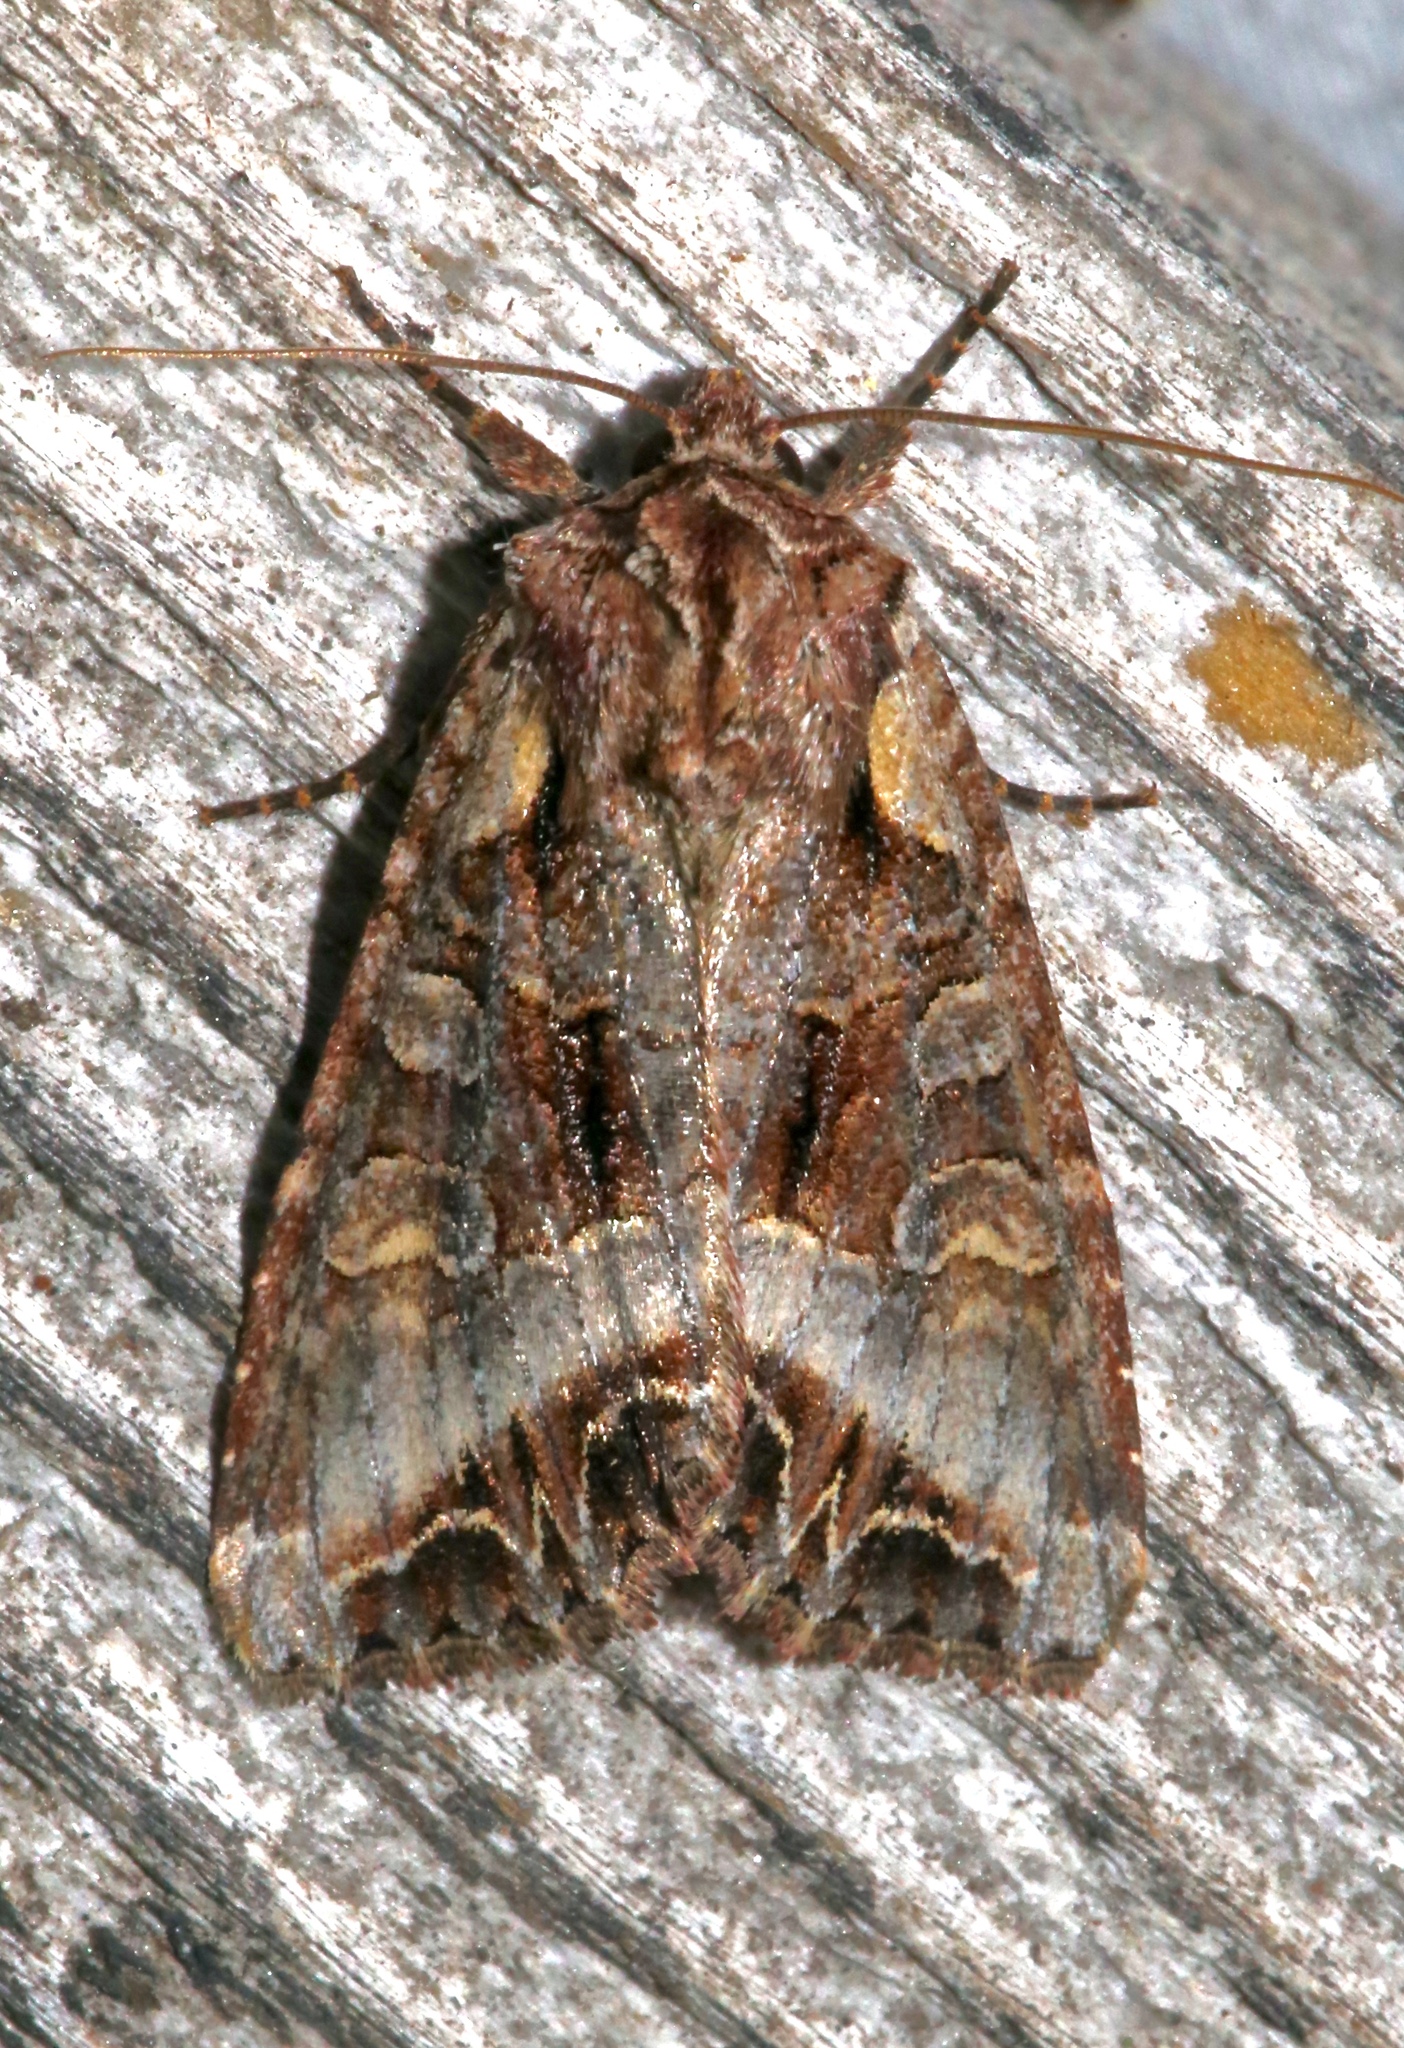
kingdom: Animalia
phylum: Arthropoda
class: Insecta
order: Lepidoptera
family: Noctuidae
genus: Lacanobia
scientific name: Lacanobia grandis
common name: Grand arches moth
